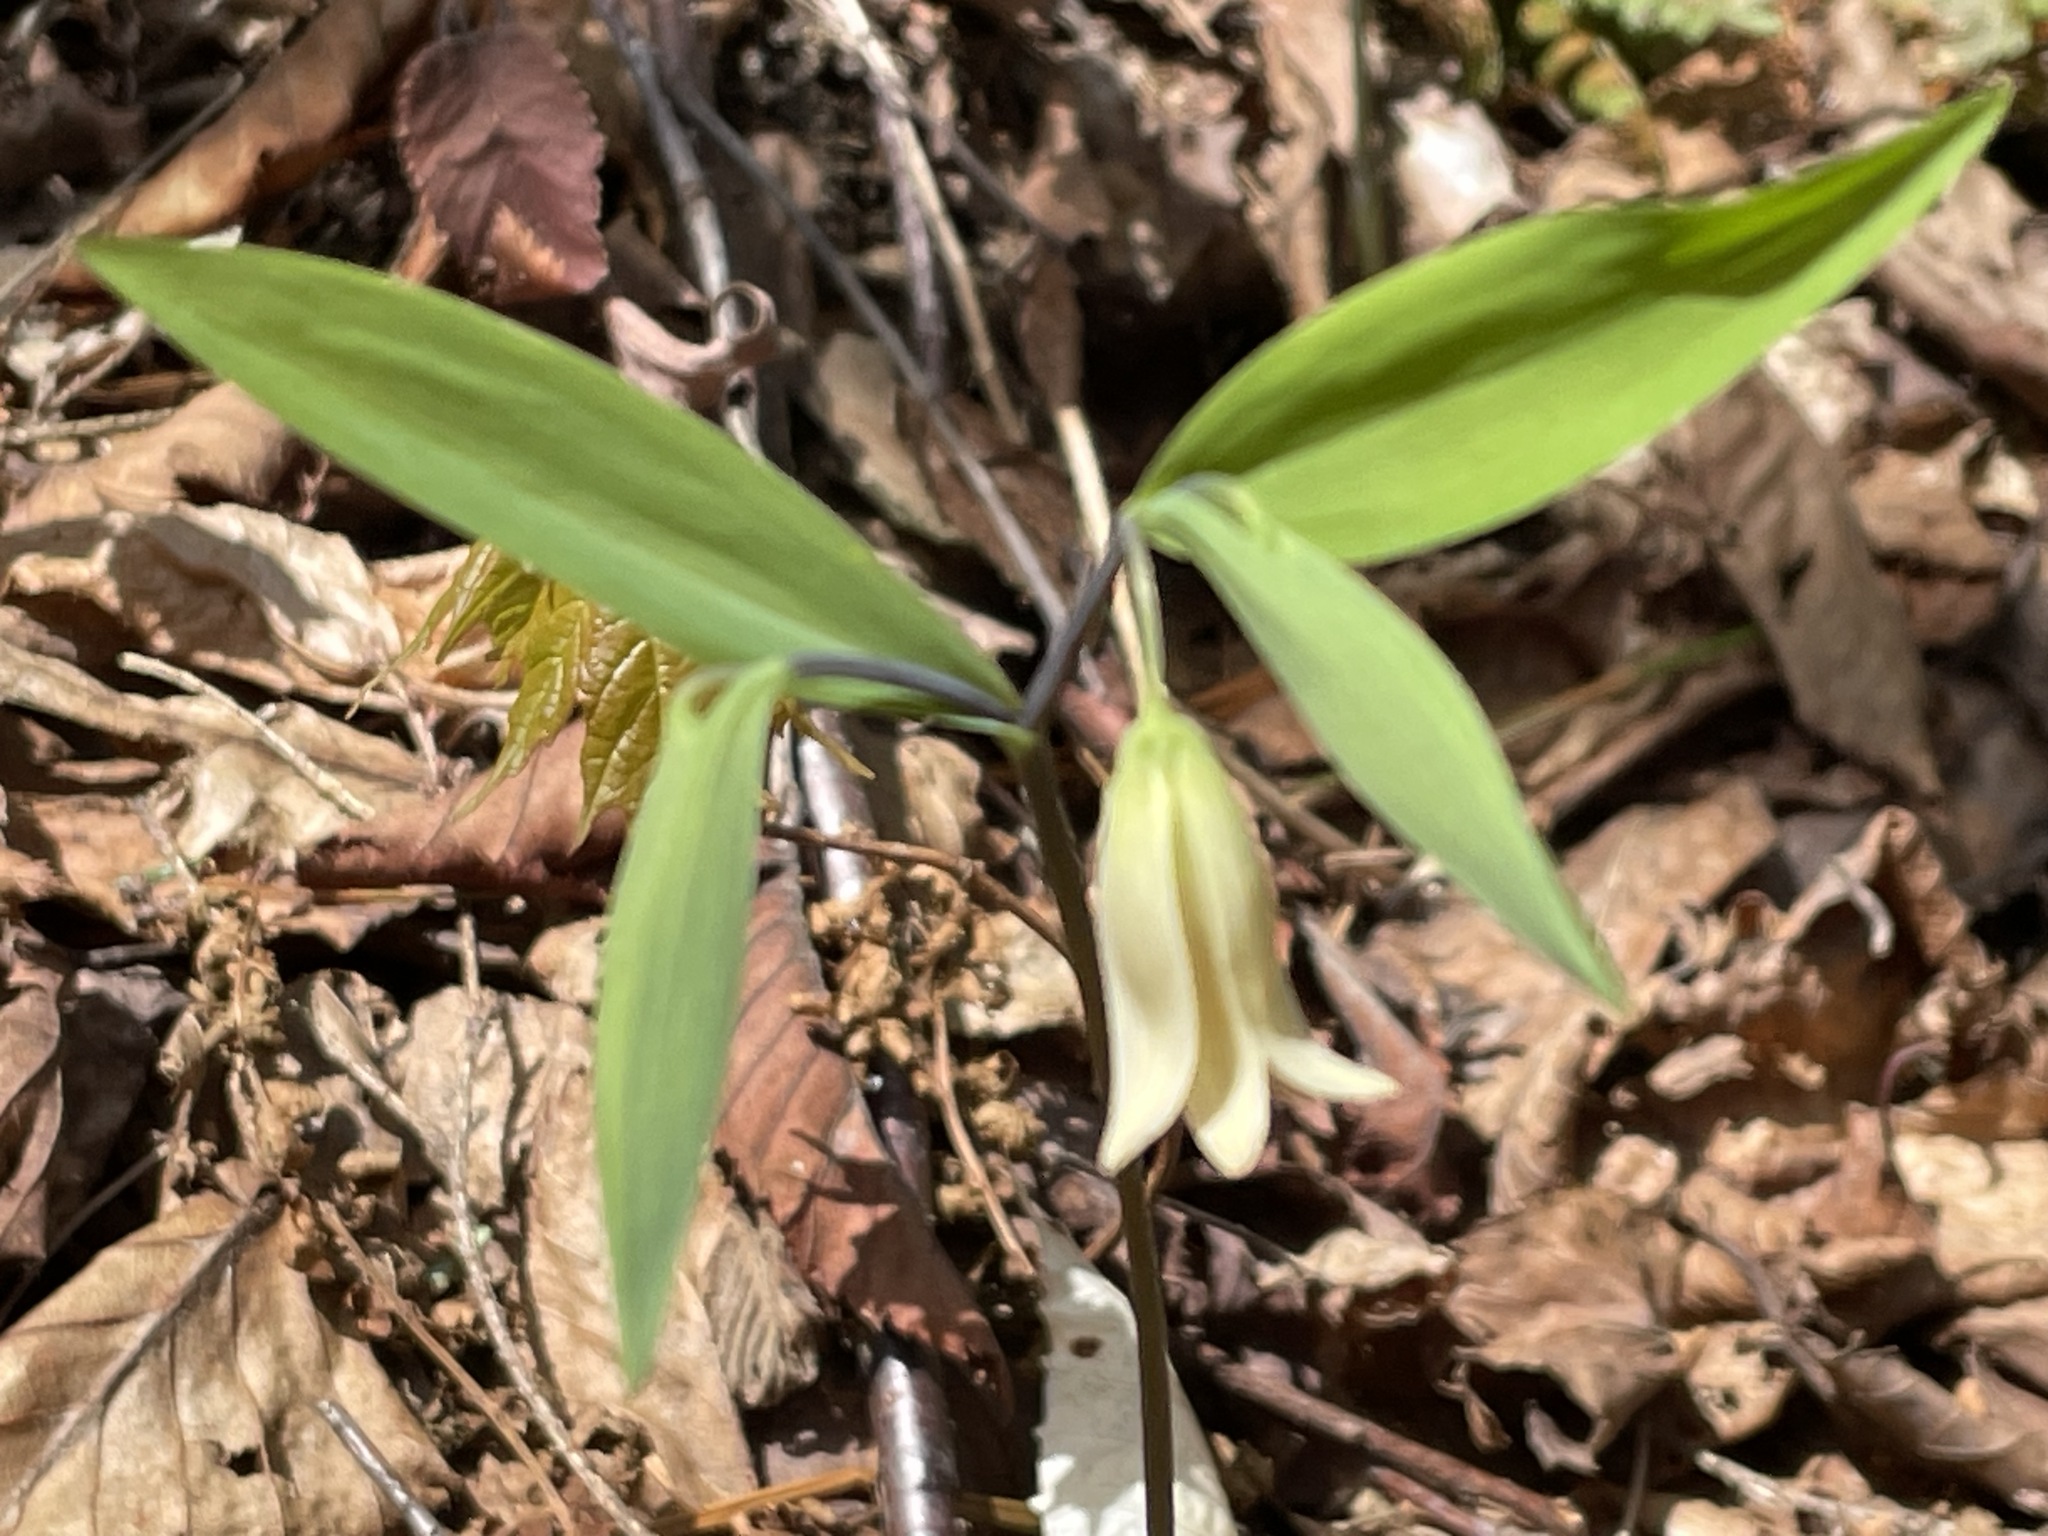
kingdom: Plantae
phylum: Tracheophyta
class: Liliopsida
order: Liliales
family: Colchicaceae
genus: Uvularia
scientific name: Uvularia sessilifolia
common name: Straw-lily
